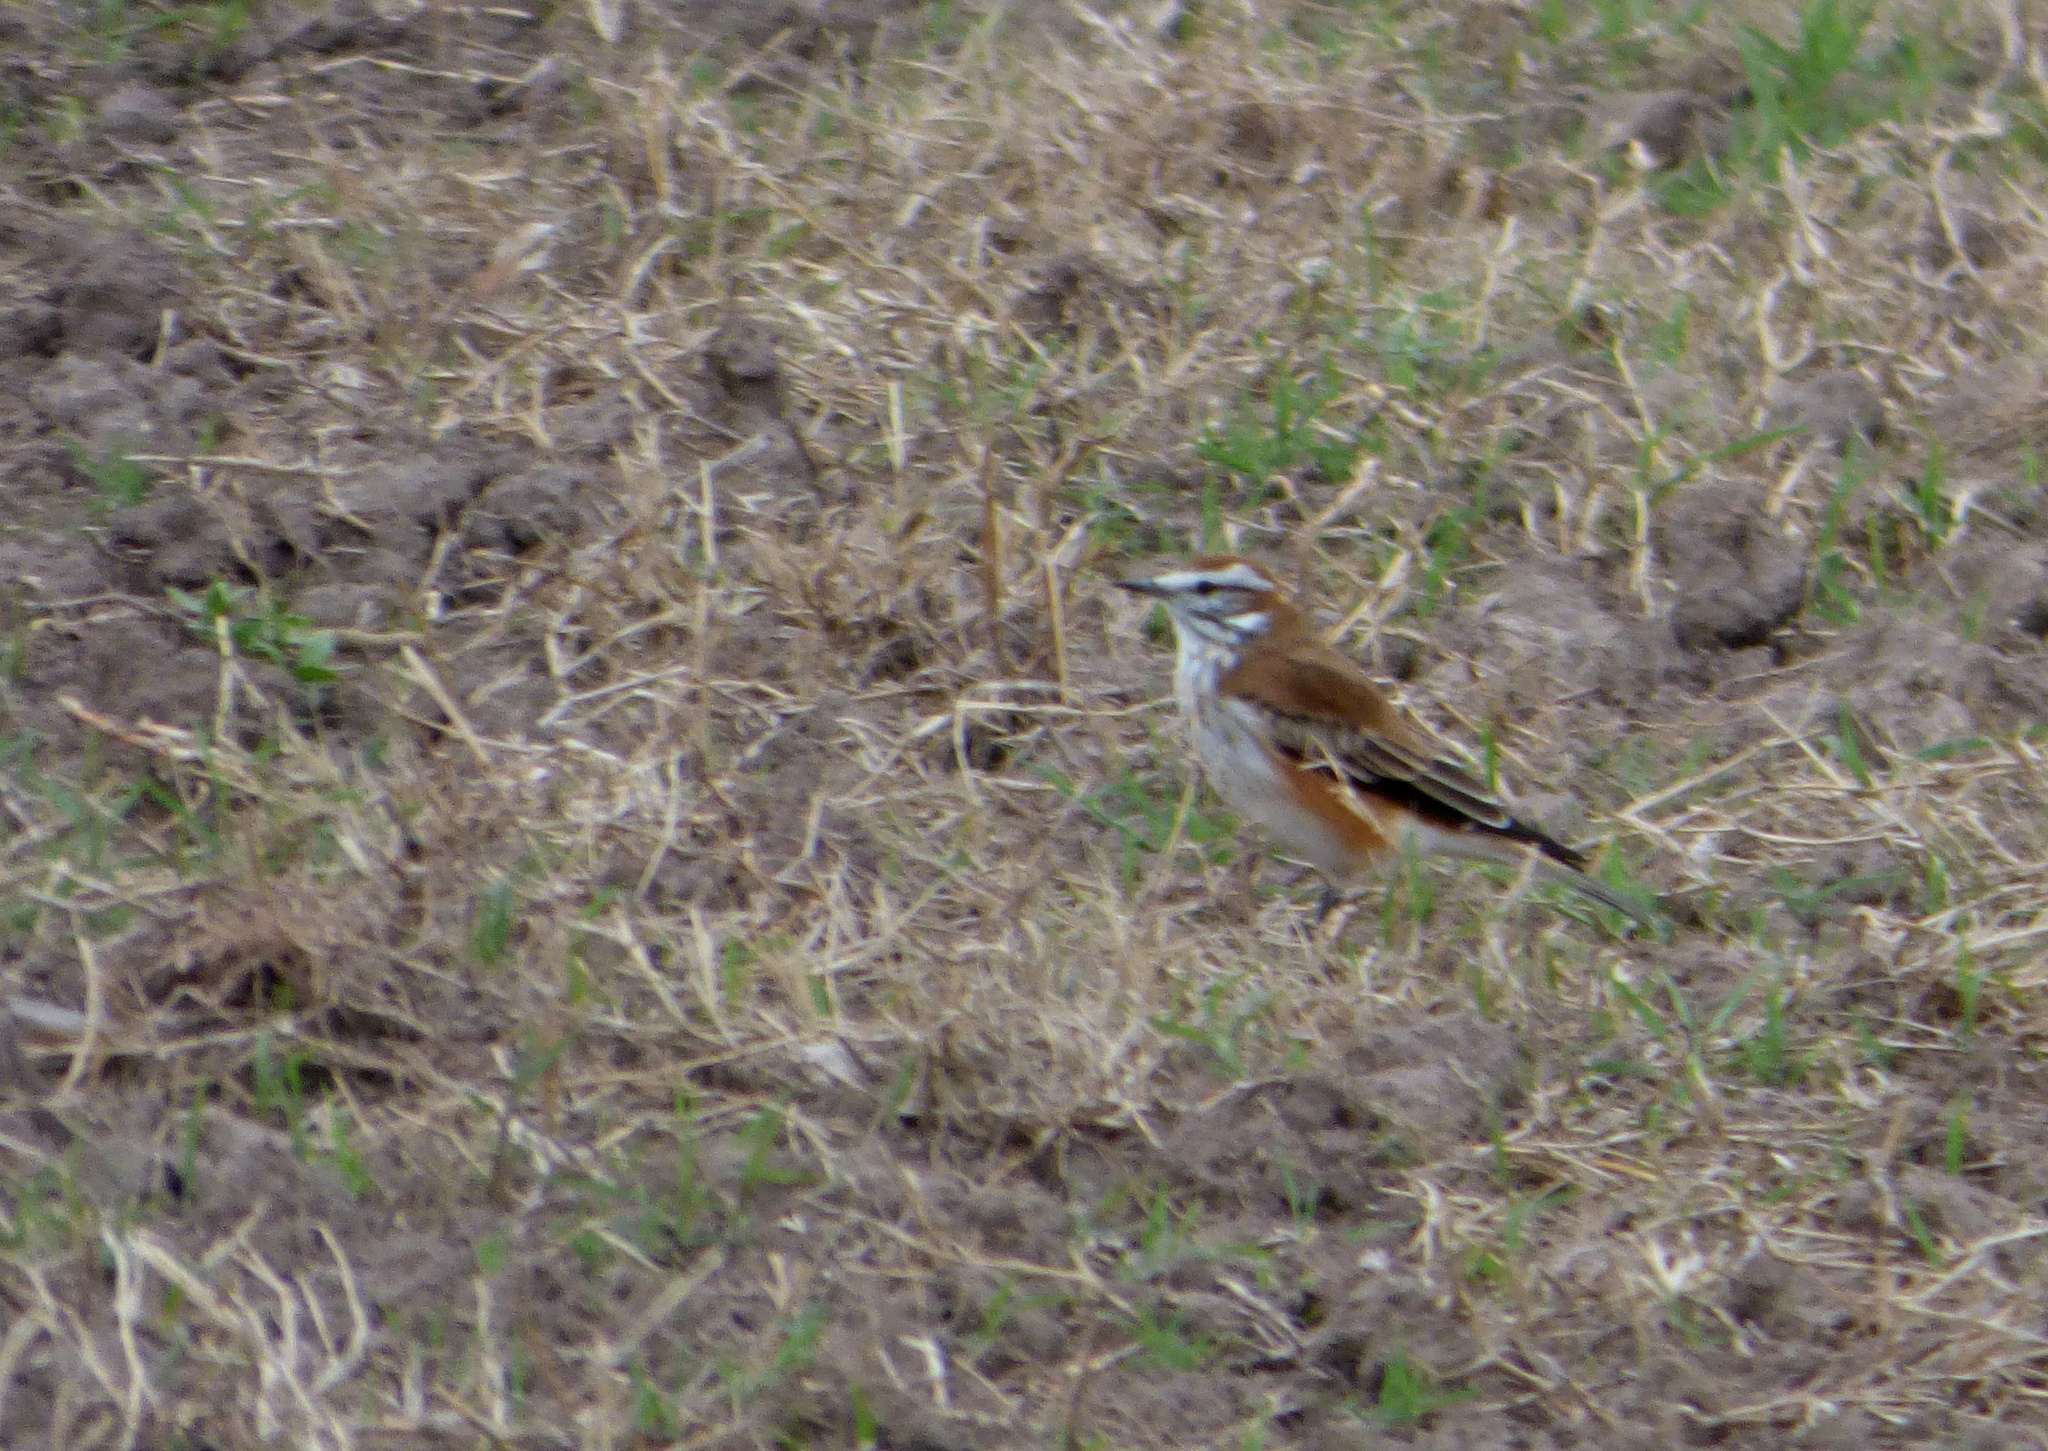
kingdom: Animalia
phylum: Chordata
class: Aves
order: Passeriformes
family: Tyrannidae
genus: Xolmis
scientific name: Xolmis rubetra
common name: Rusty-backed monjita
